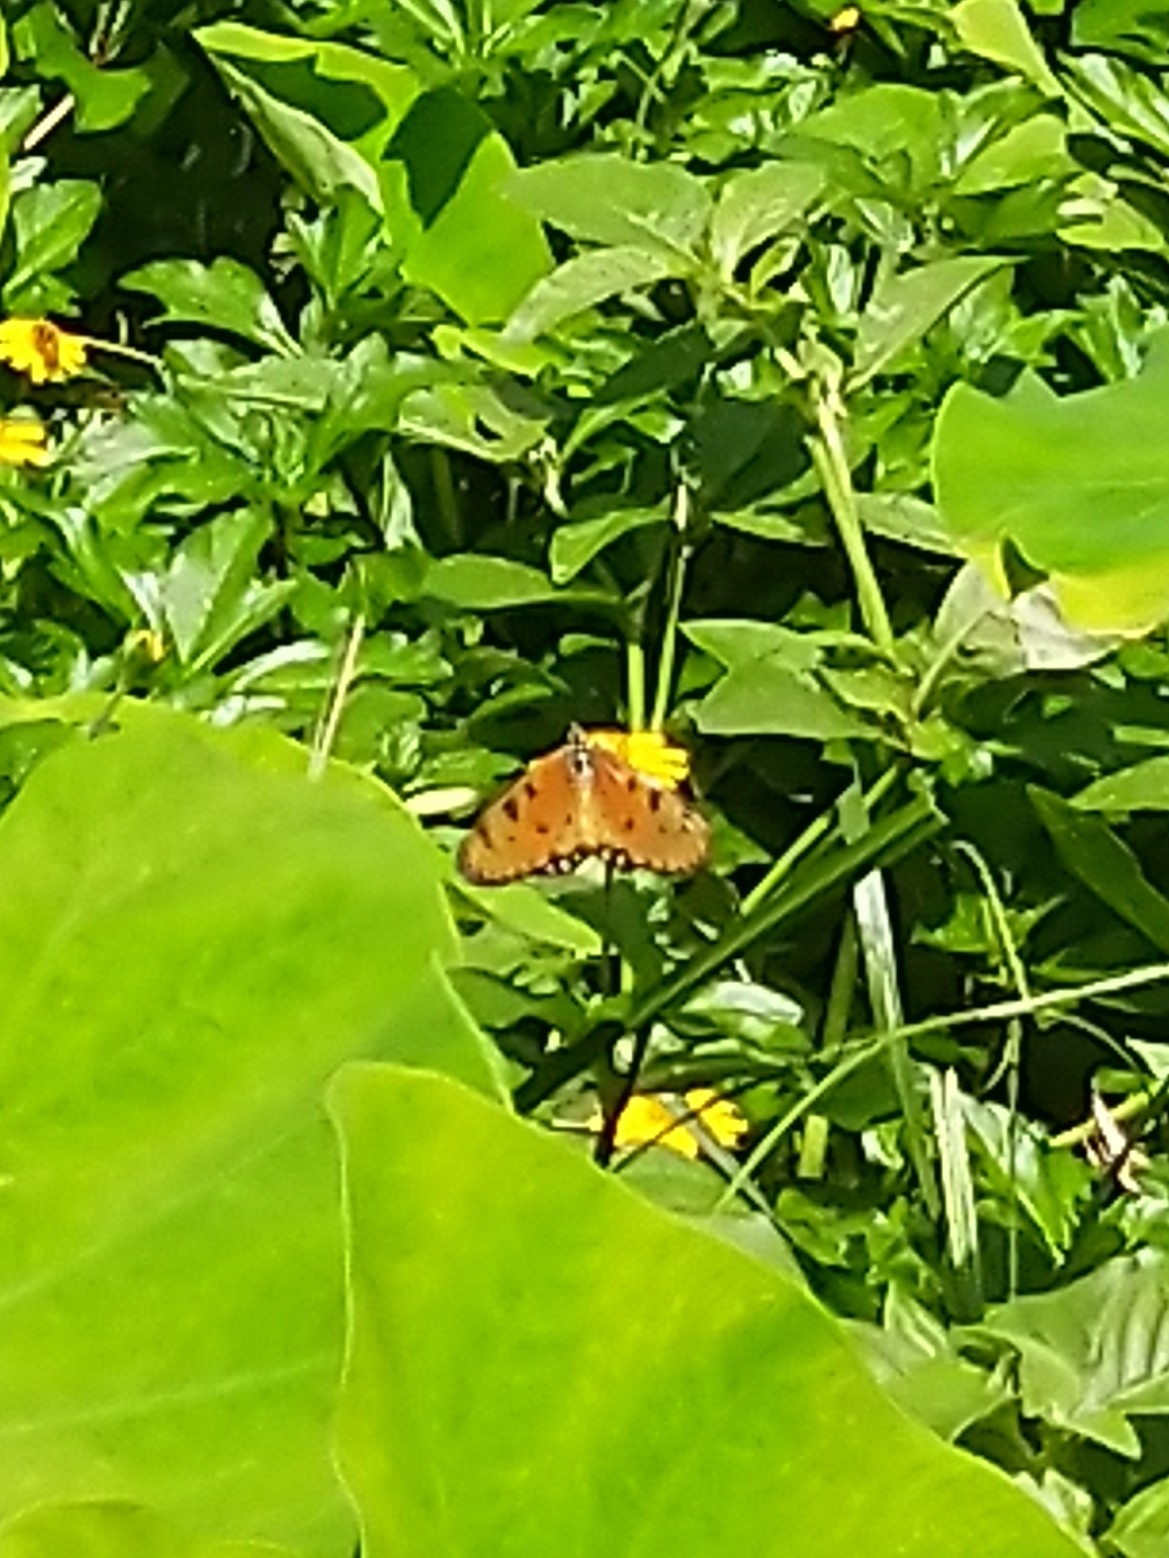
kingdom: Animalia
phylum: Arthropoda
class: Insecta
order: Lepidoptera
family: Nymphalidae
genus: Acraea
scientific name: Acraea terpsicore
